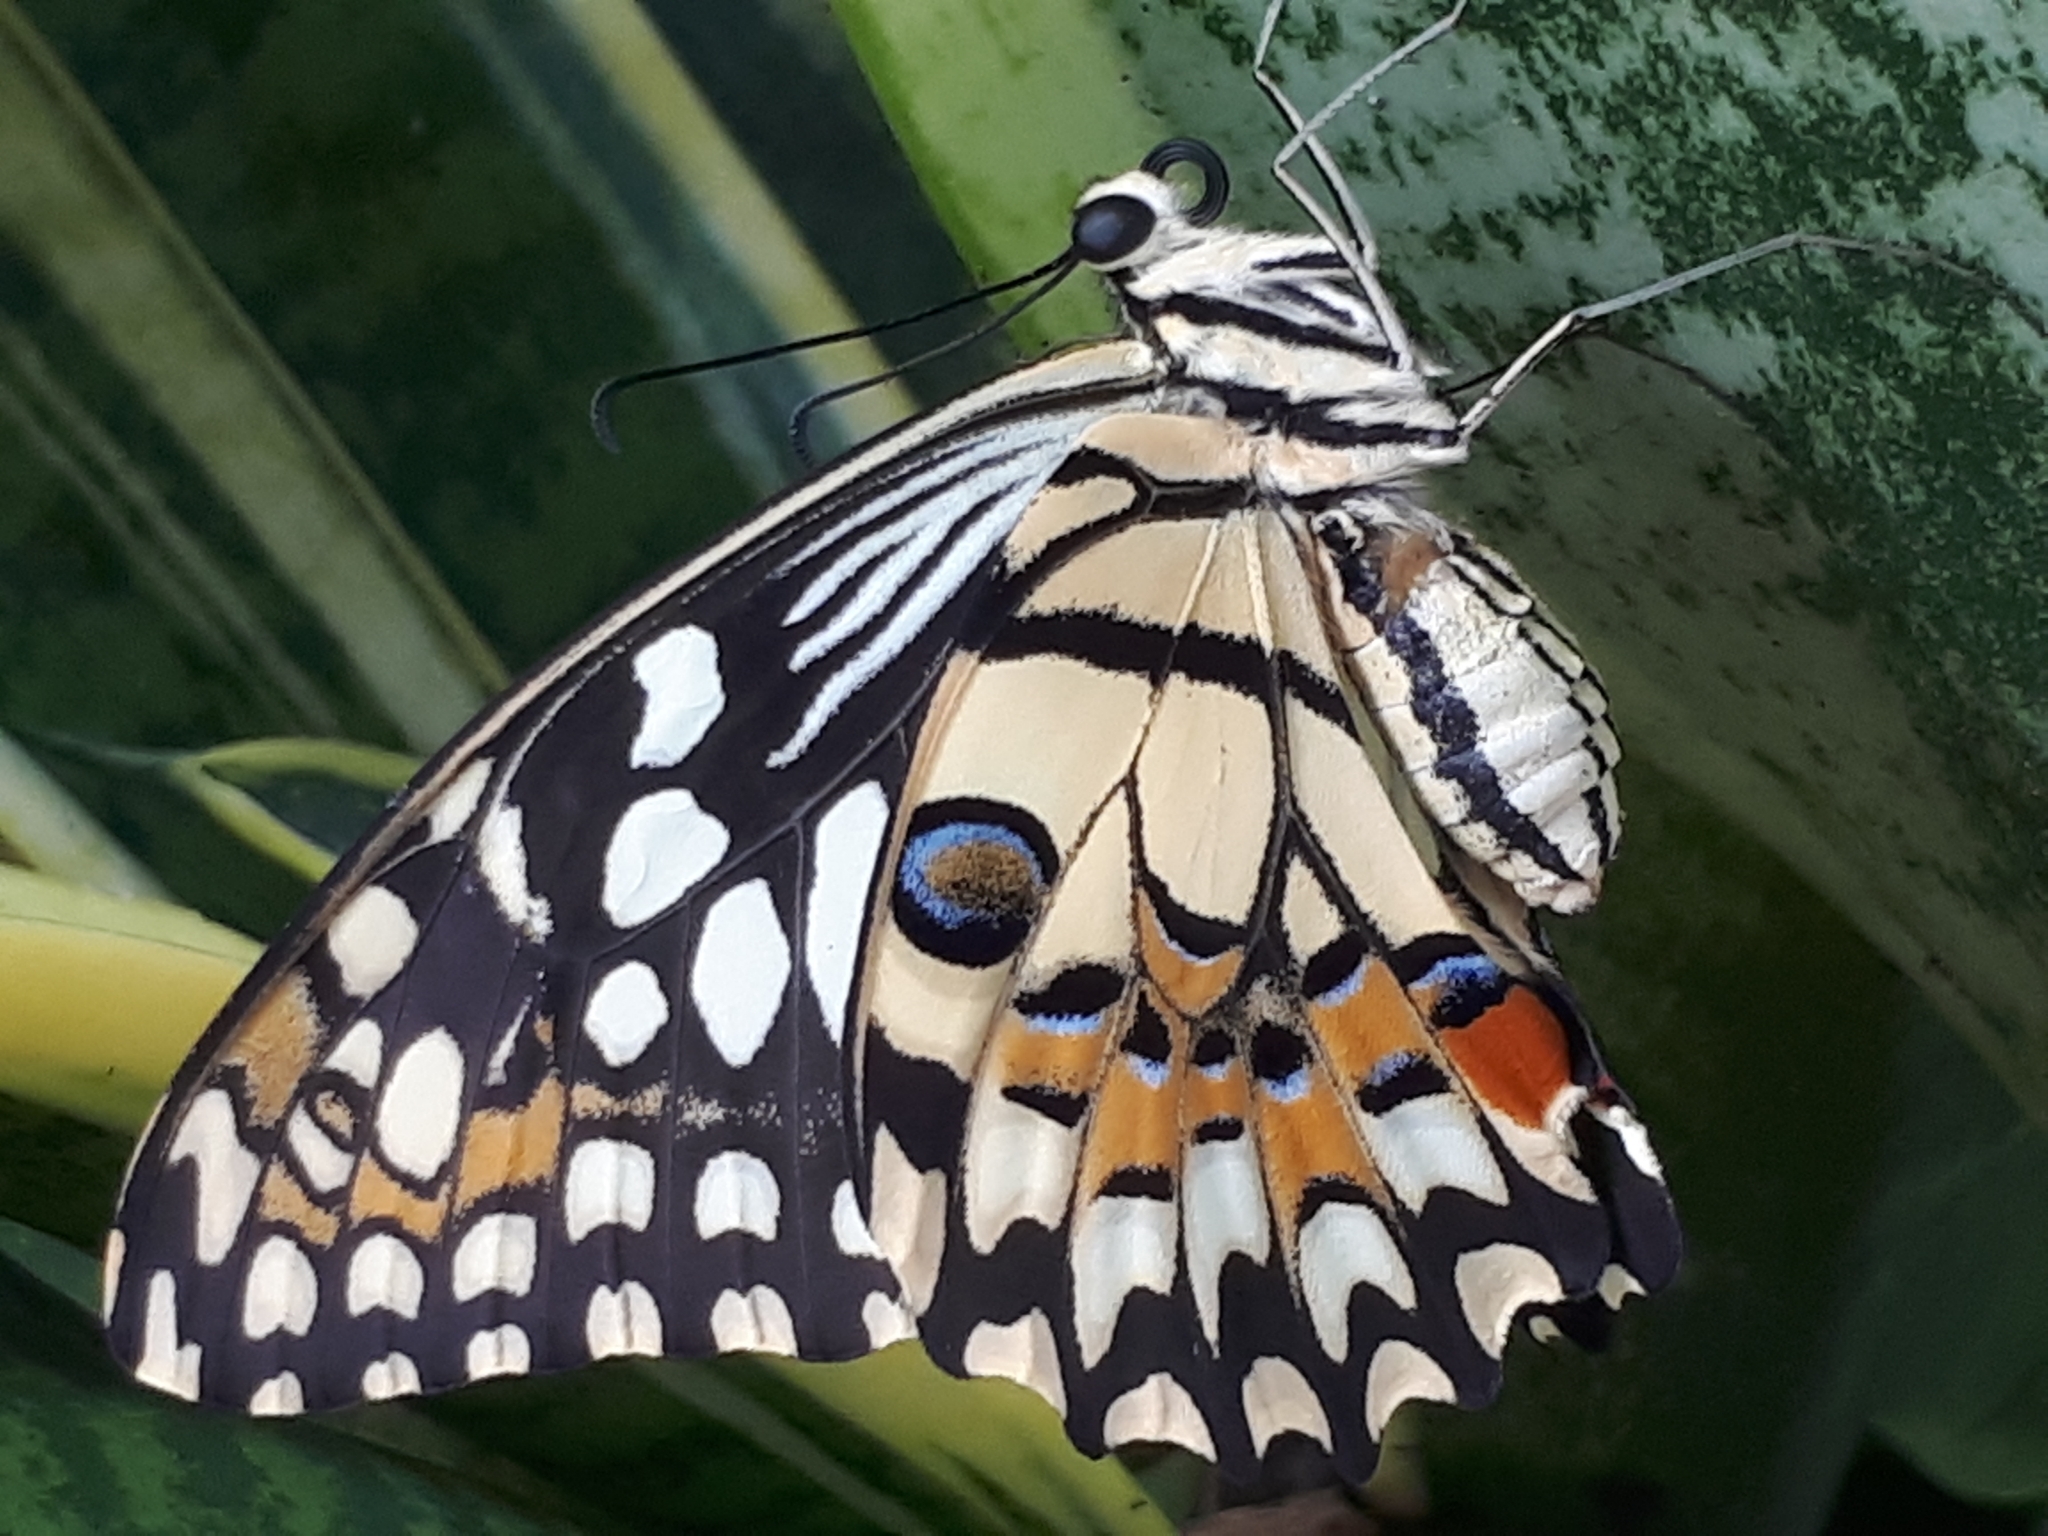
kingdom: Animalia
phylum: Arthropoda
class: Insecta
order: Lepidoptera
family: Papilionidae
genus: Papilio
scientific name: Papilio demoleus
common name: Lime butterfly
